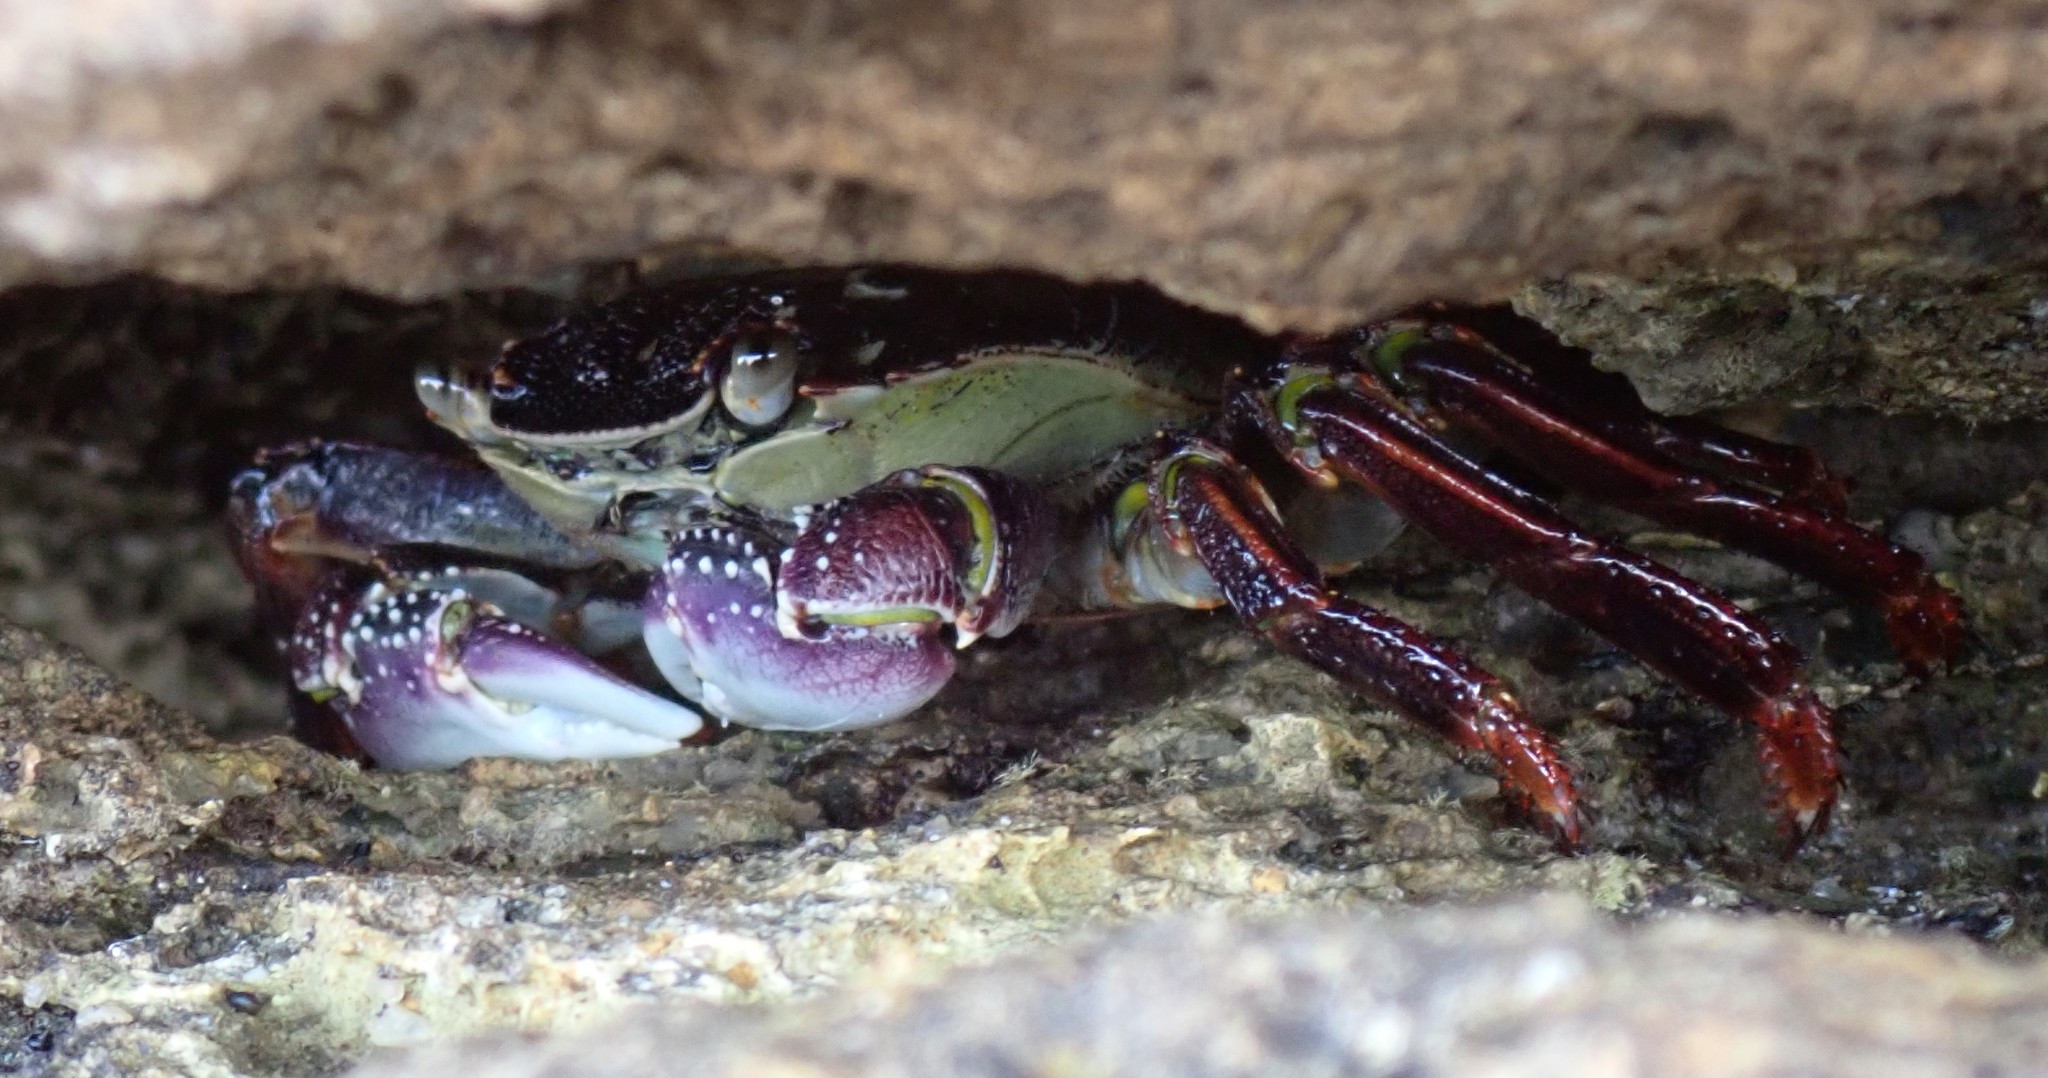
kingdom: Animalia
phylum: Arthropoda
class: Malacostraca
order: Decapoda
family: Grapsidae
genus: Leptograpsus
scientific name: Leptograpsus variegatus
